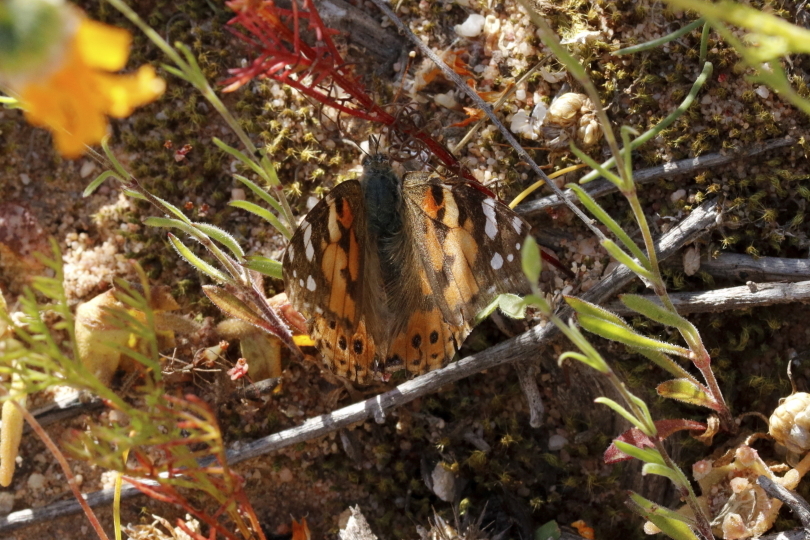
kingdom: Animalia
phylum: Arthropoda
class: Insecta
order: Lepidoptera
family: Nymphalidae
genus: Vanessa
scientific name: Vanessa cardui
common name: Painted lady
